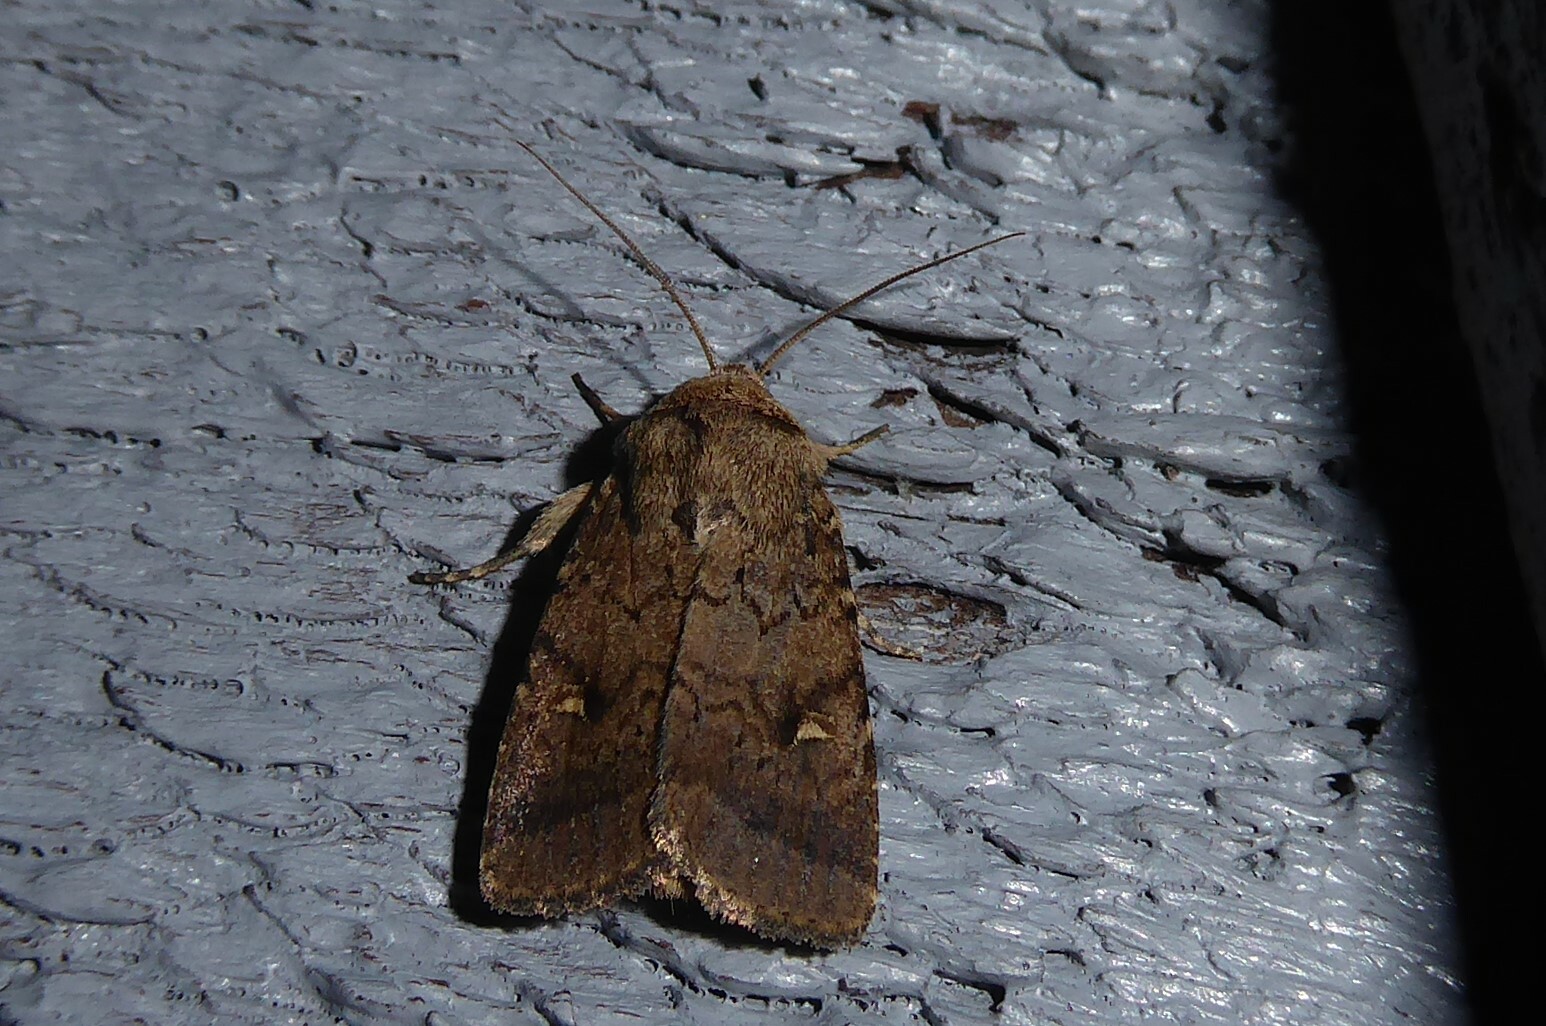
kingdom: Animalia
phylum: Arthropoda
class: Insecta
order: Lepidoptera
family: Noctuidae
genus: Proteuxoa
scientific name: Proteuxoa tetronycha
